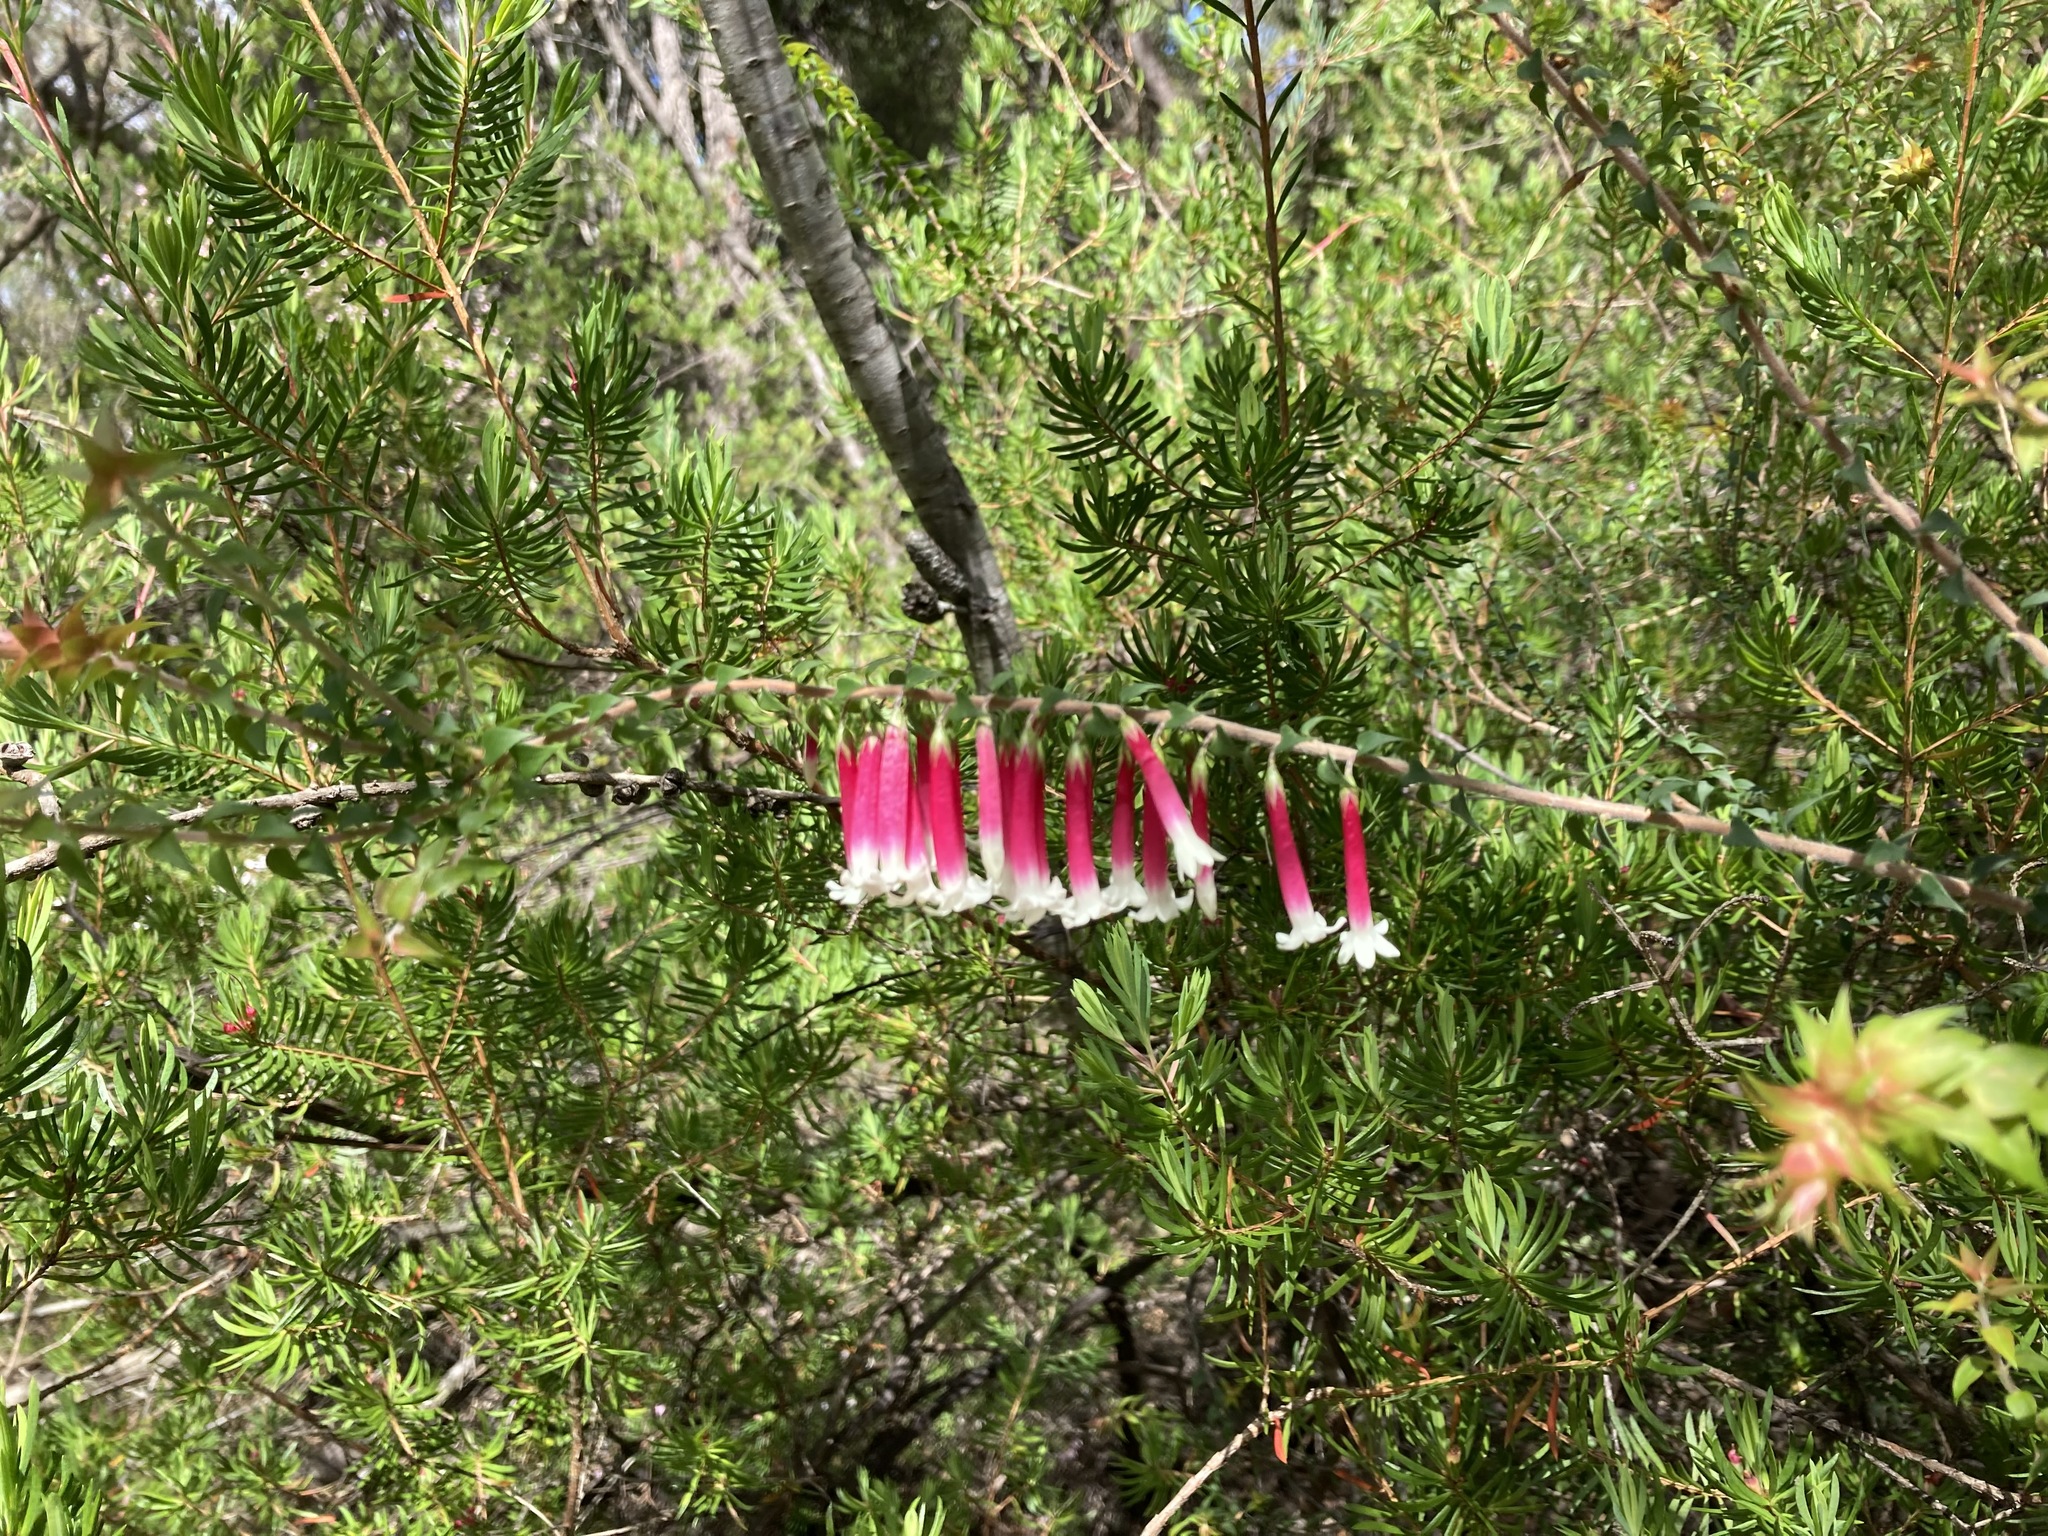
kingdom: Plantae
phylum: Tracheophyta
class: Magnoliopsida
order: Ericales
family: Ericaceae
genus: Epacris
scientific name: Epacris longiflora
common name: Fuchsia-heath
